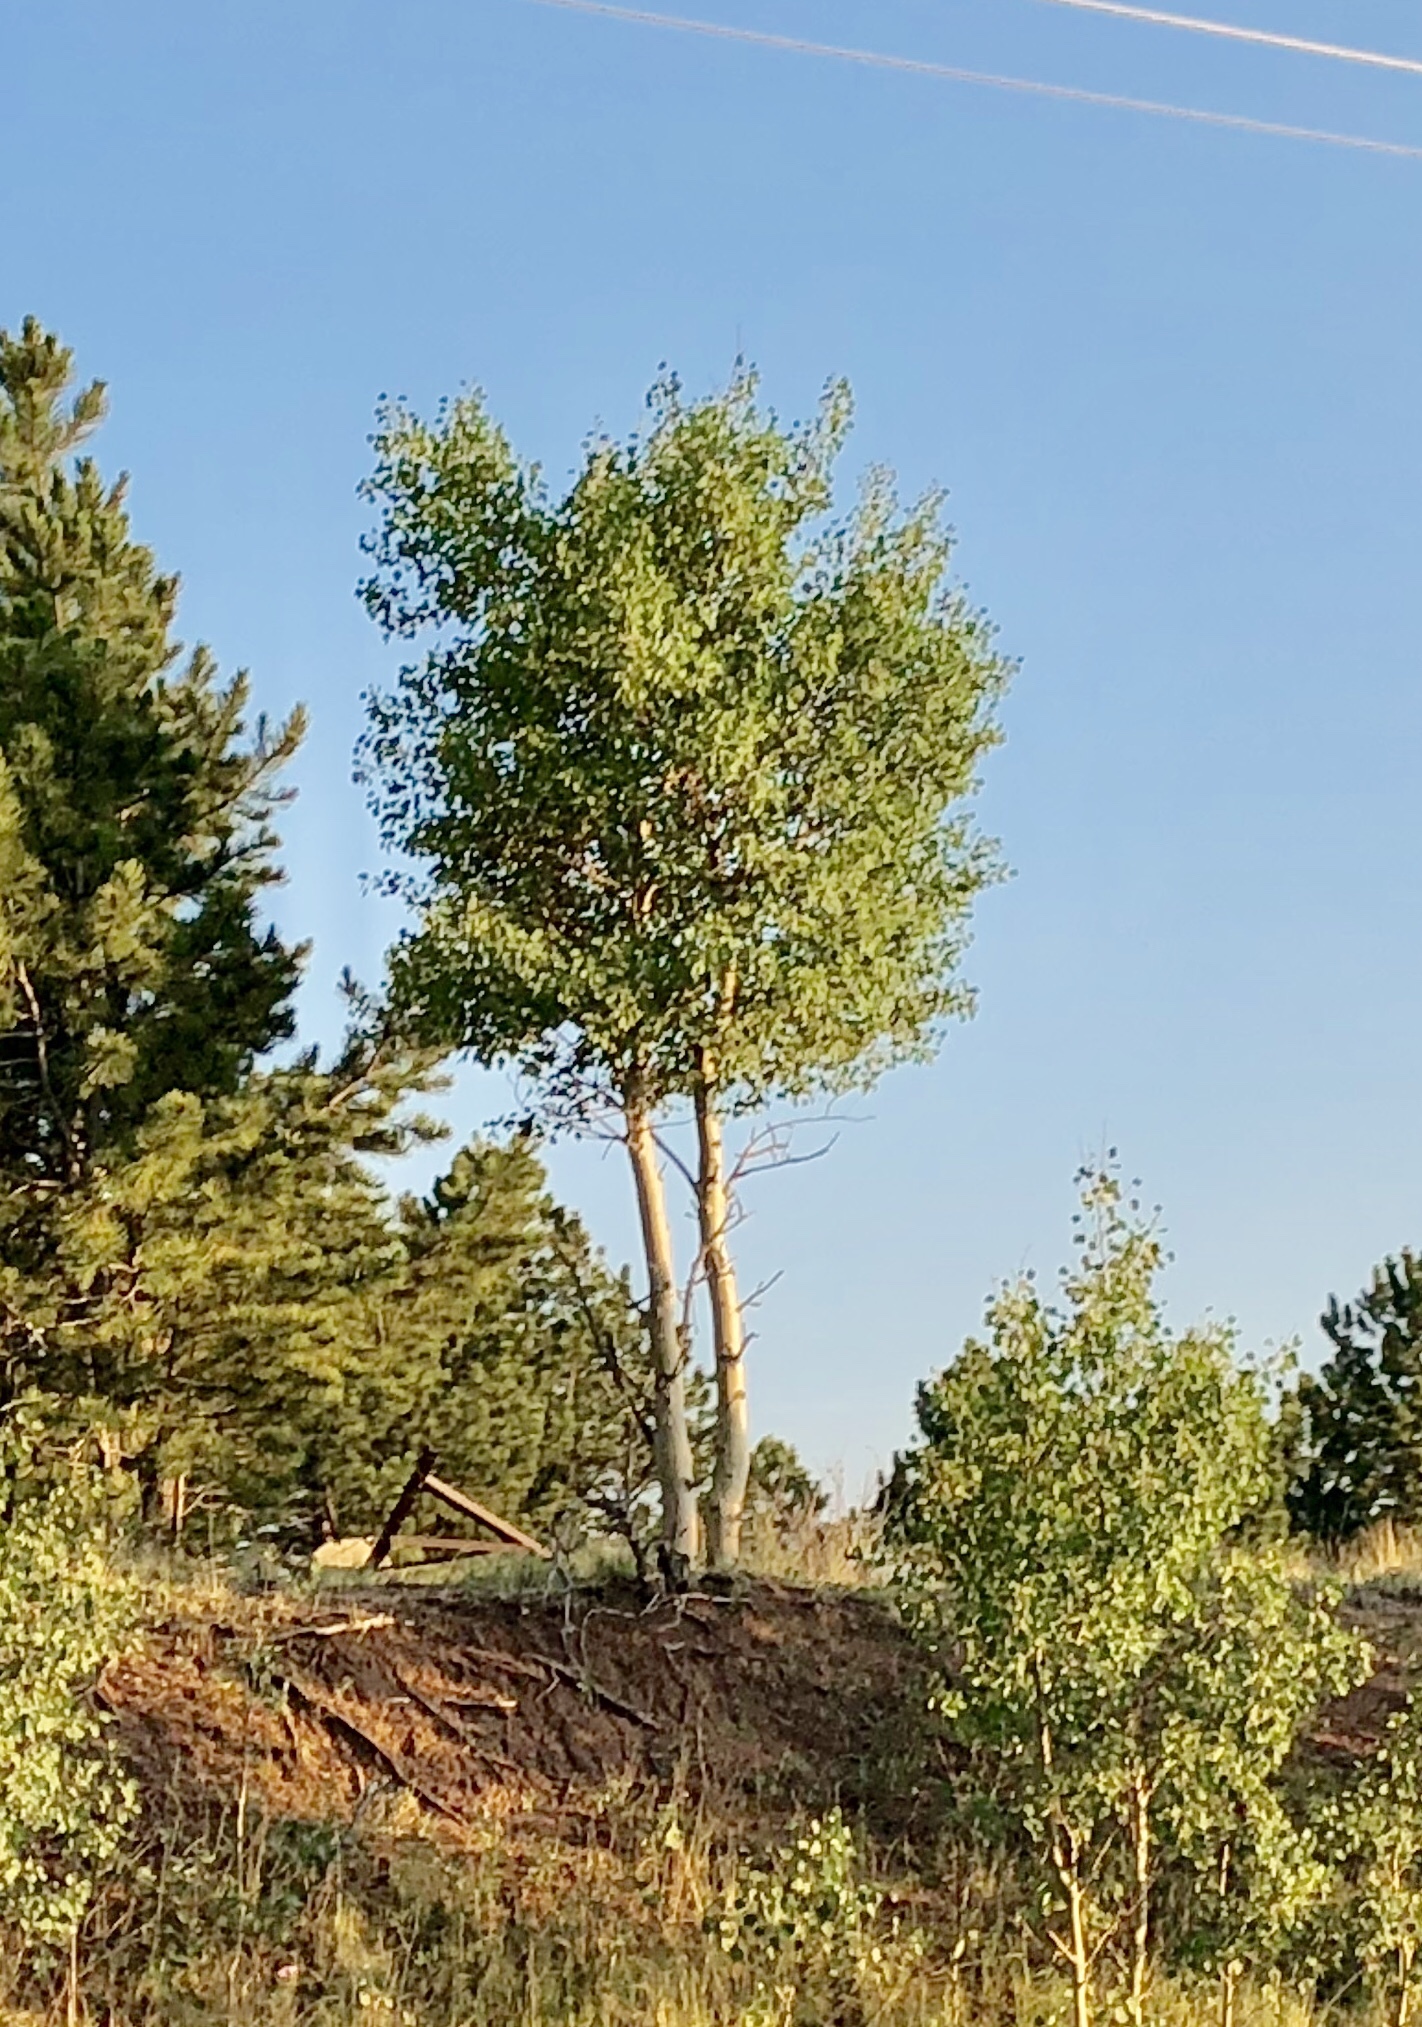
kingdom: Plantae
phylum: Tracheophyta
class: Magnoliopsida
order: Malpighiales
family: Salicaceae
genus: Populus
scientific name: Populus tremuloides
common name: Quaking aspen
